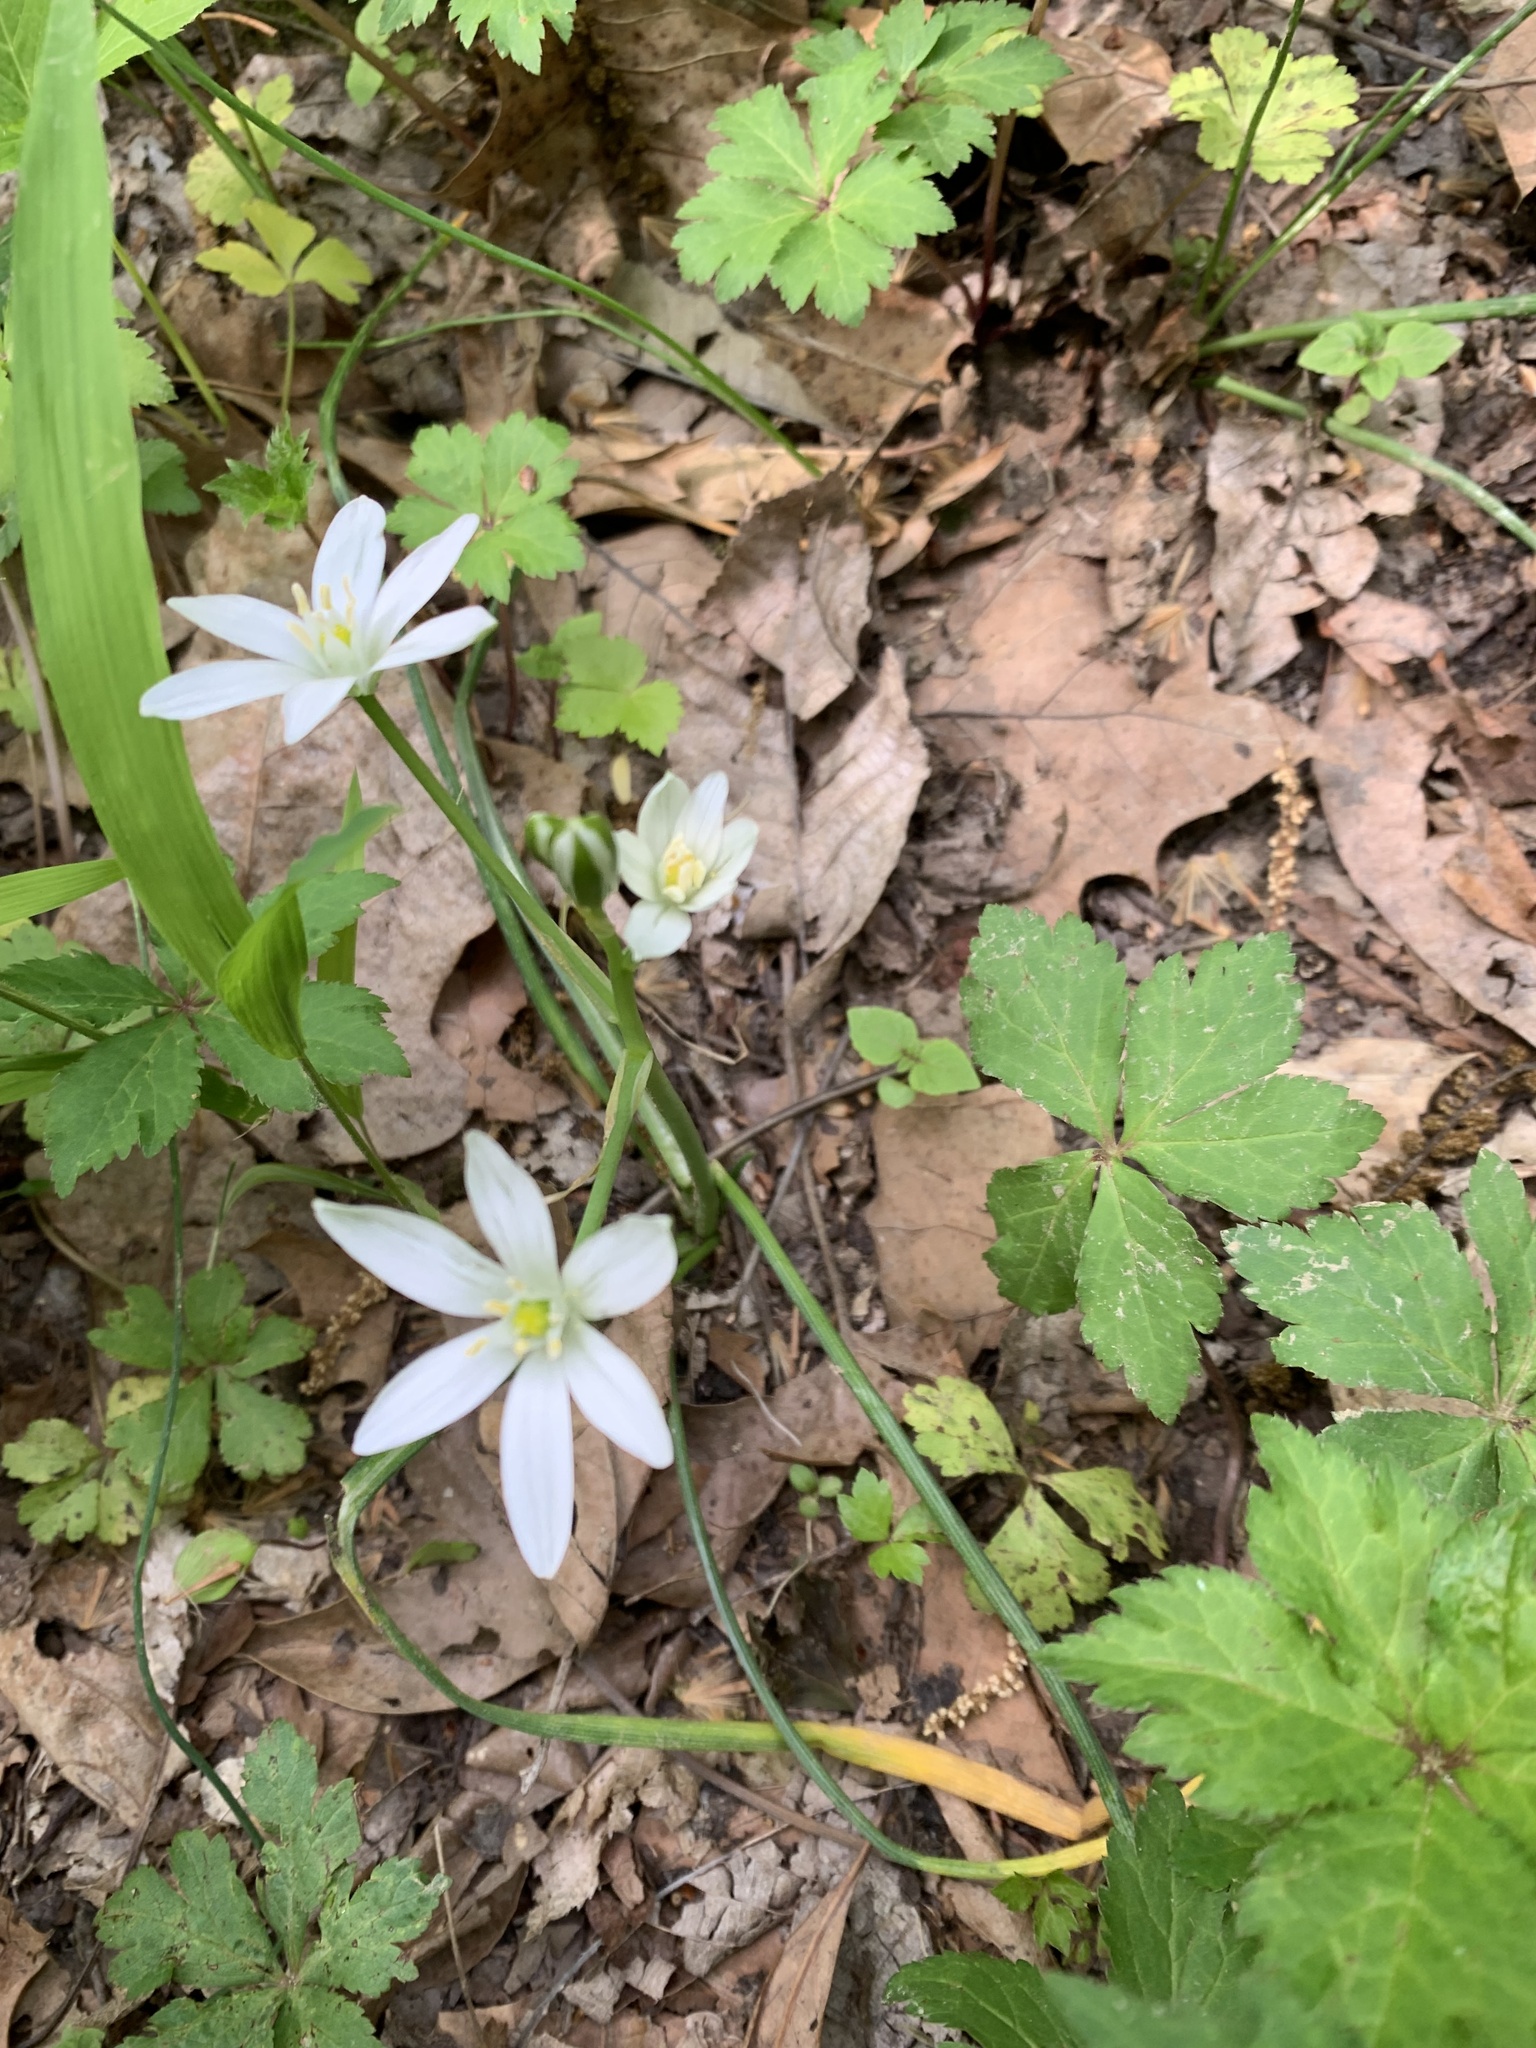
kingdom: Plantae
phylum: Tracheophyta
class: Liliopsida
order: Asparagales
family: Asparagaceae
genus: Ornithogalum
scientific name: Ornithogalum umbellatum
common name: Garden star-of-bethlehem
